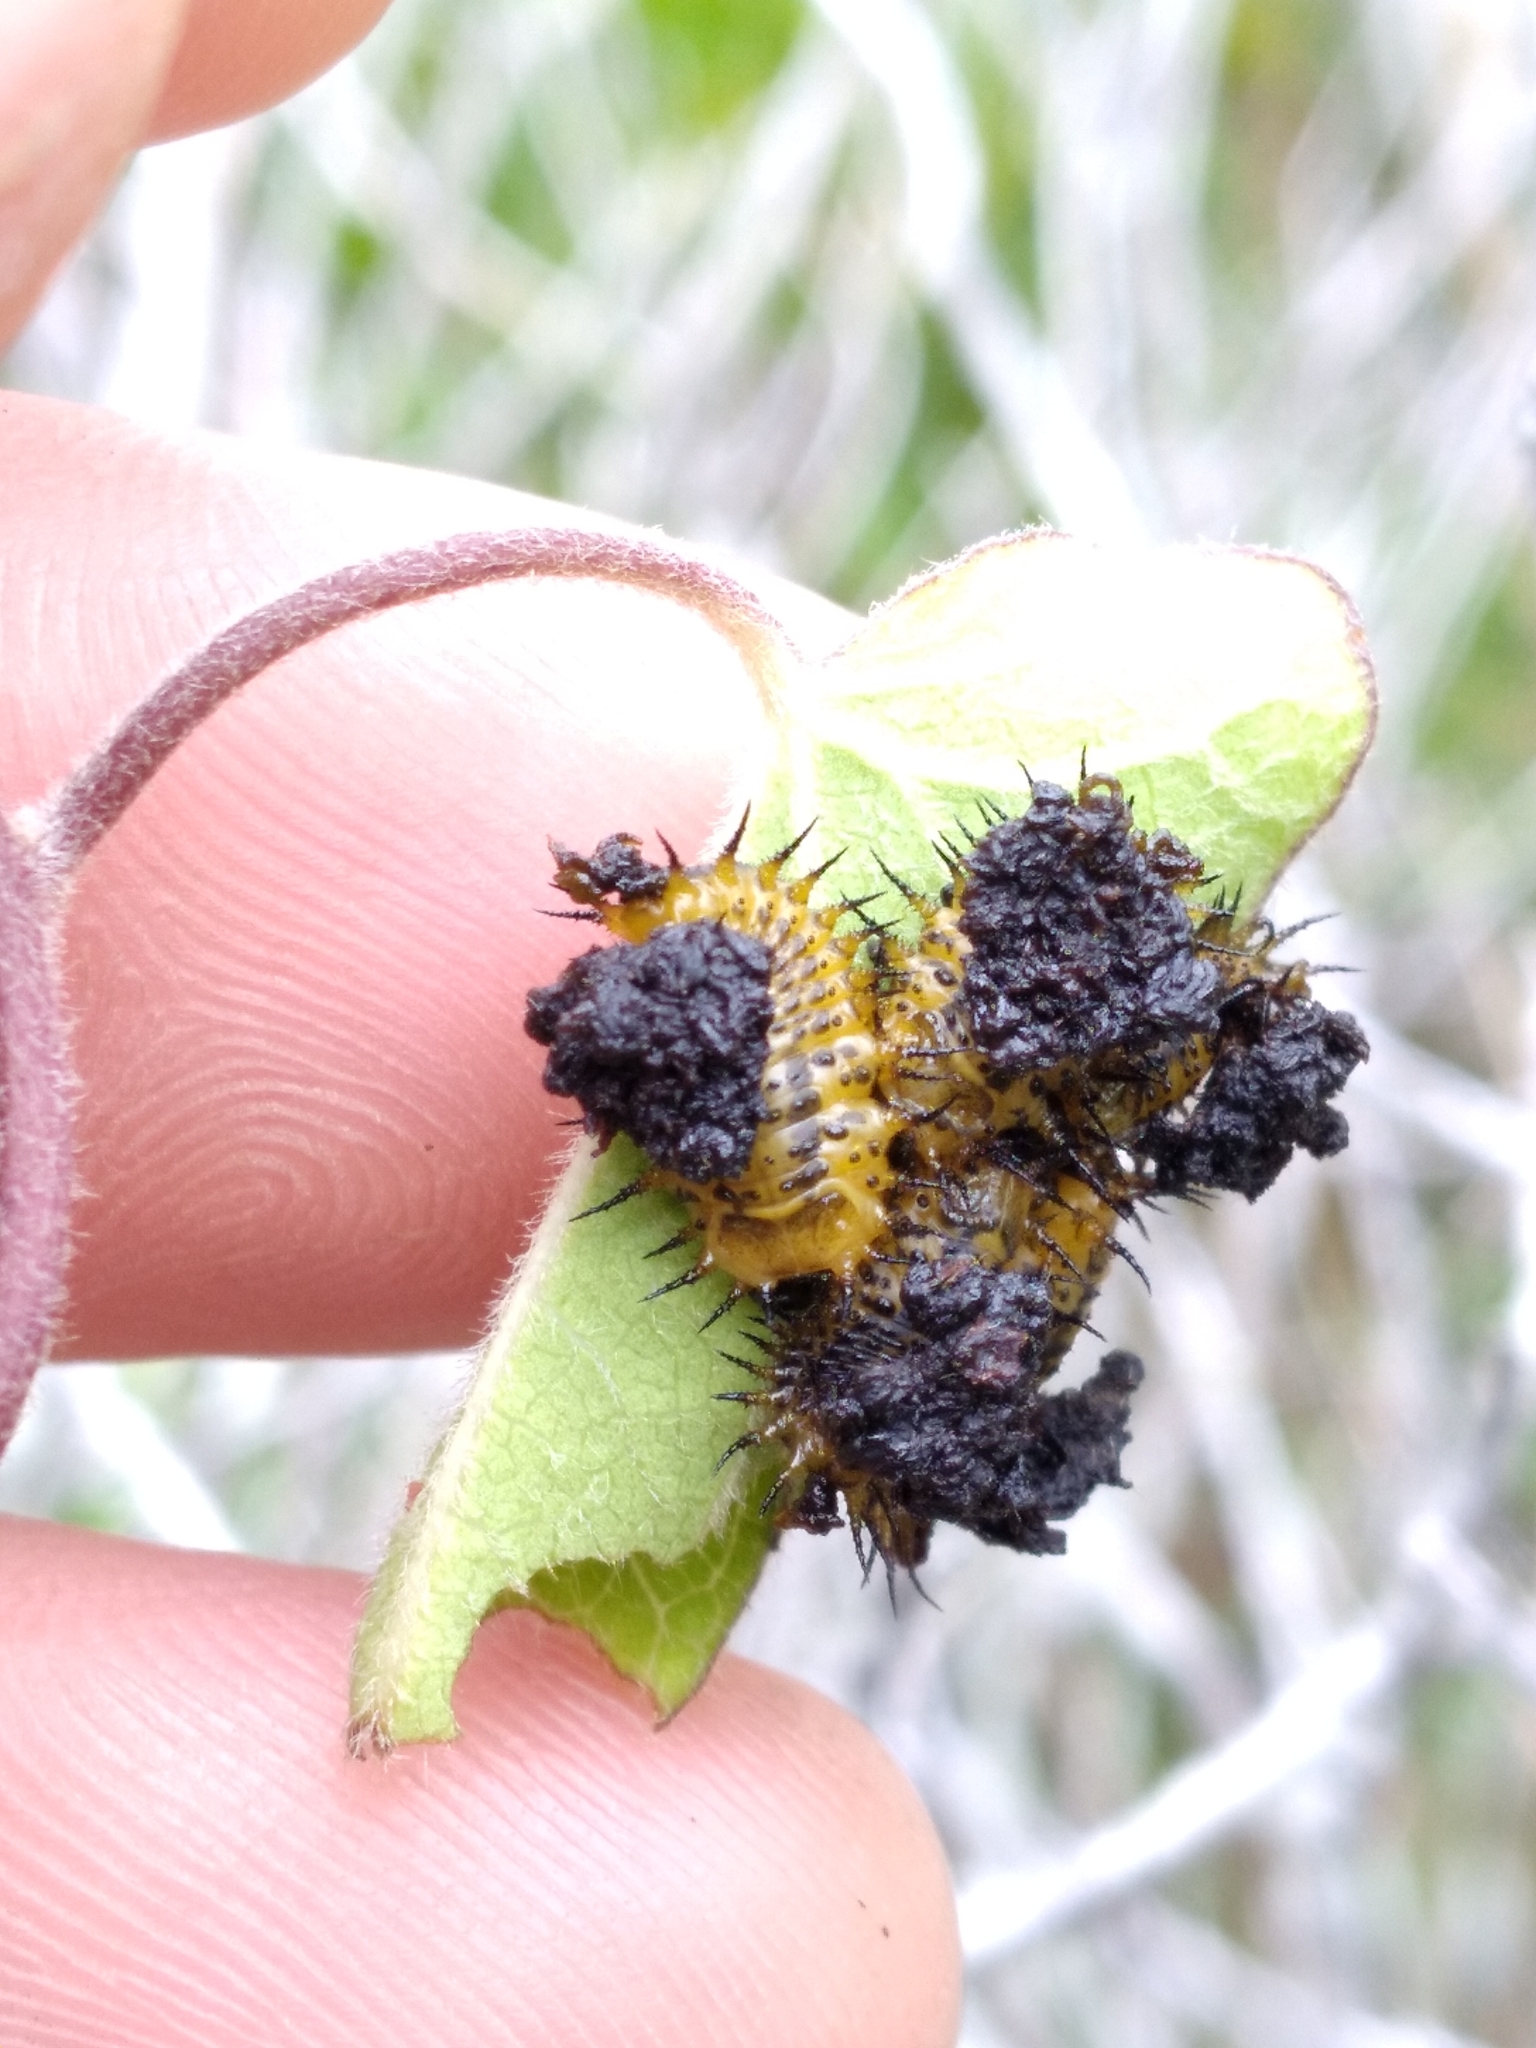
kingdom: Animalia
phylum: Arthropoda
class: Insecta
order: Coleoptera
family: Chrysomelidae
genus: Chelymorpha
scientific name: Chelymorpha cassidea
